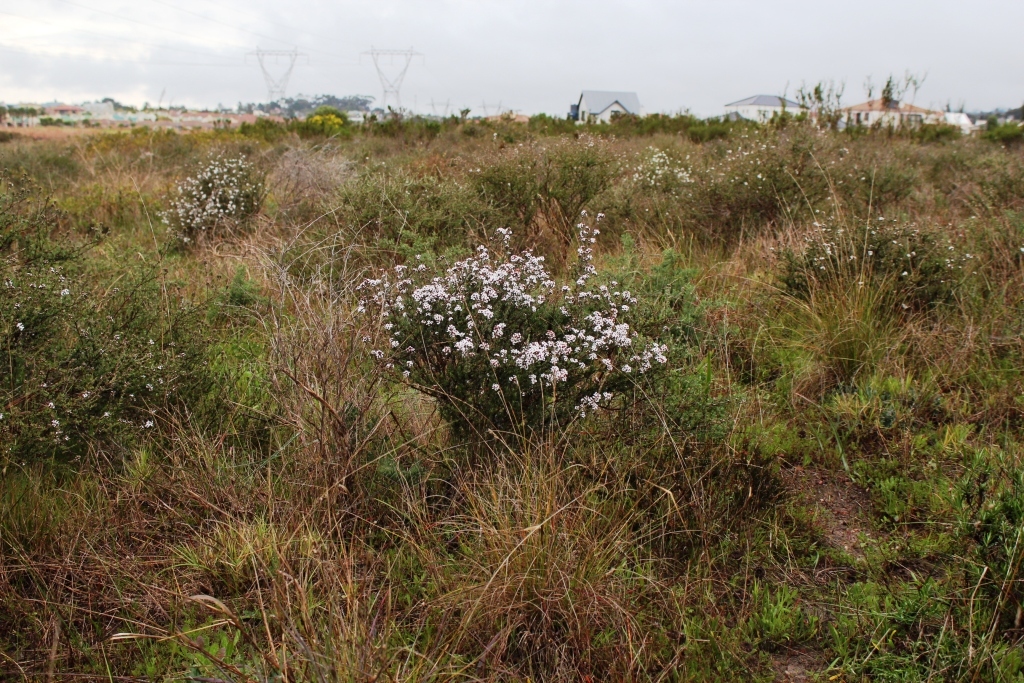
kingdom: Plantae
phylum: Tracheophyta
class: Magnoliopsida
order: Asterales
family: Asteraceae
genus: Eriocephalus
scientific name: Eriocephalus africanus
